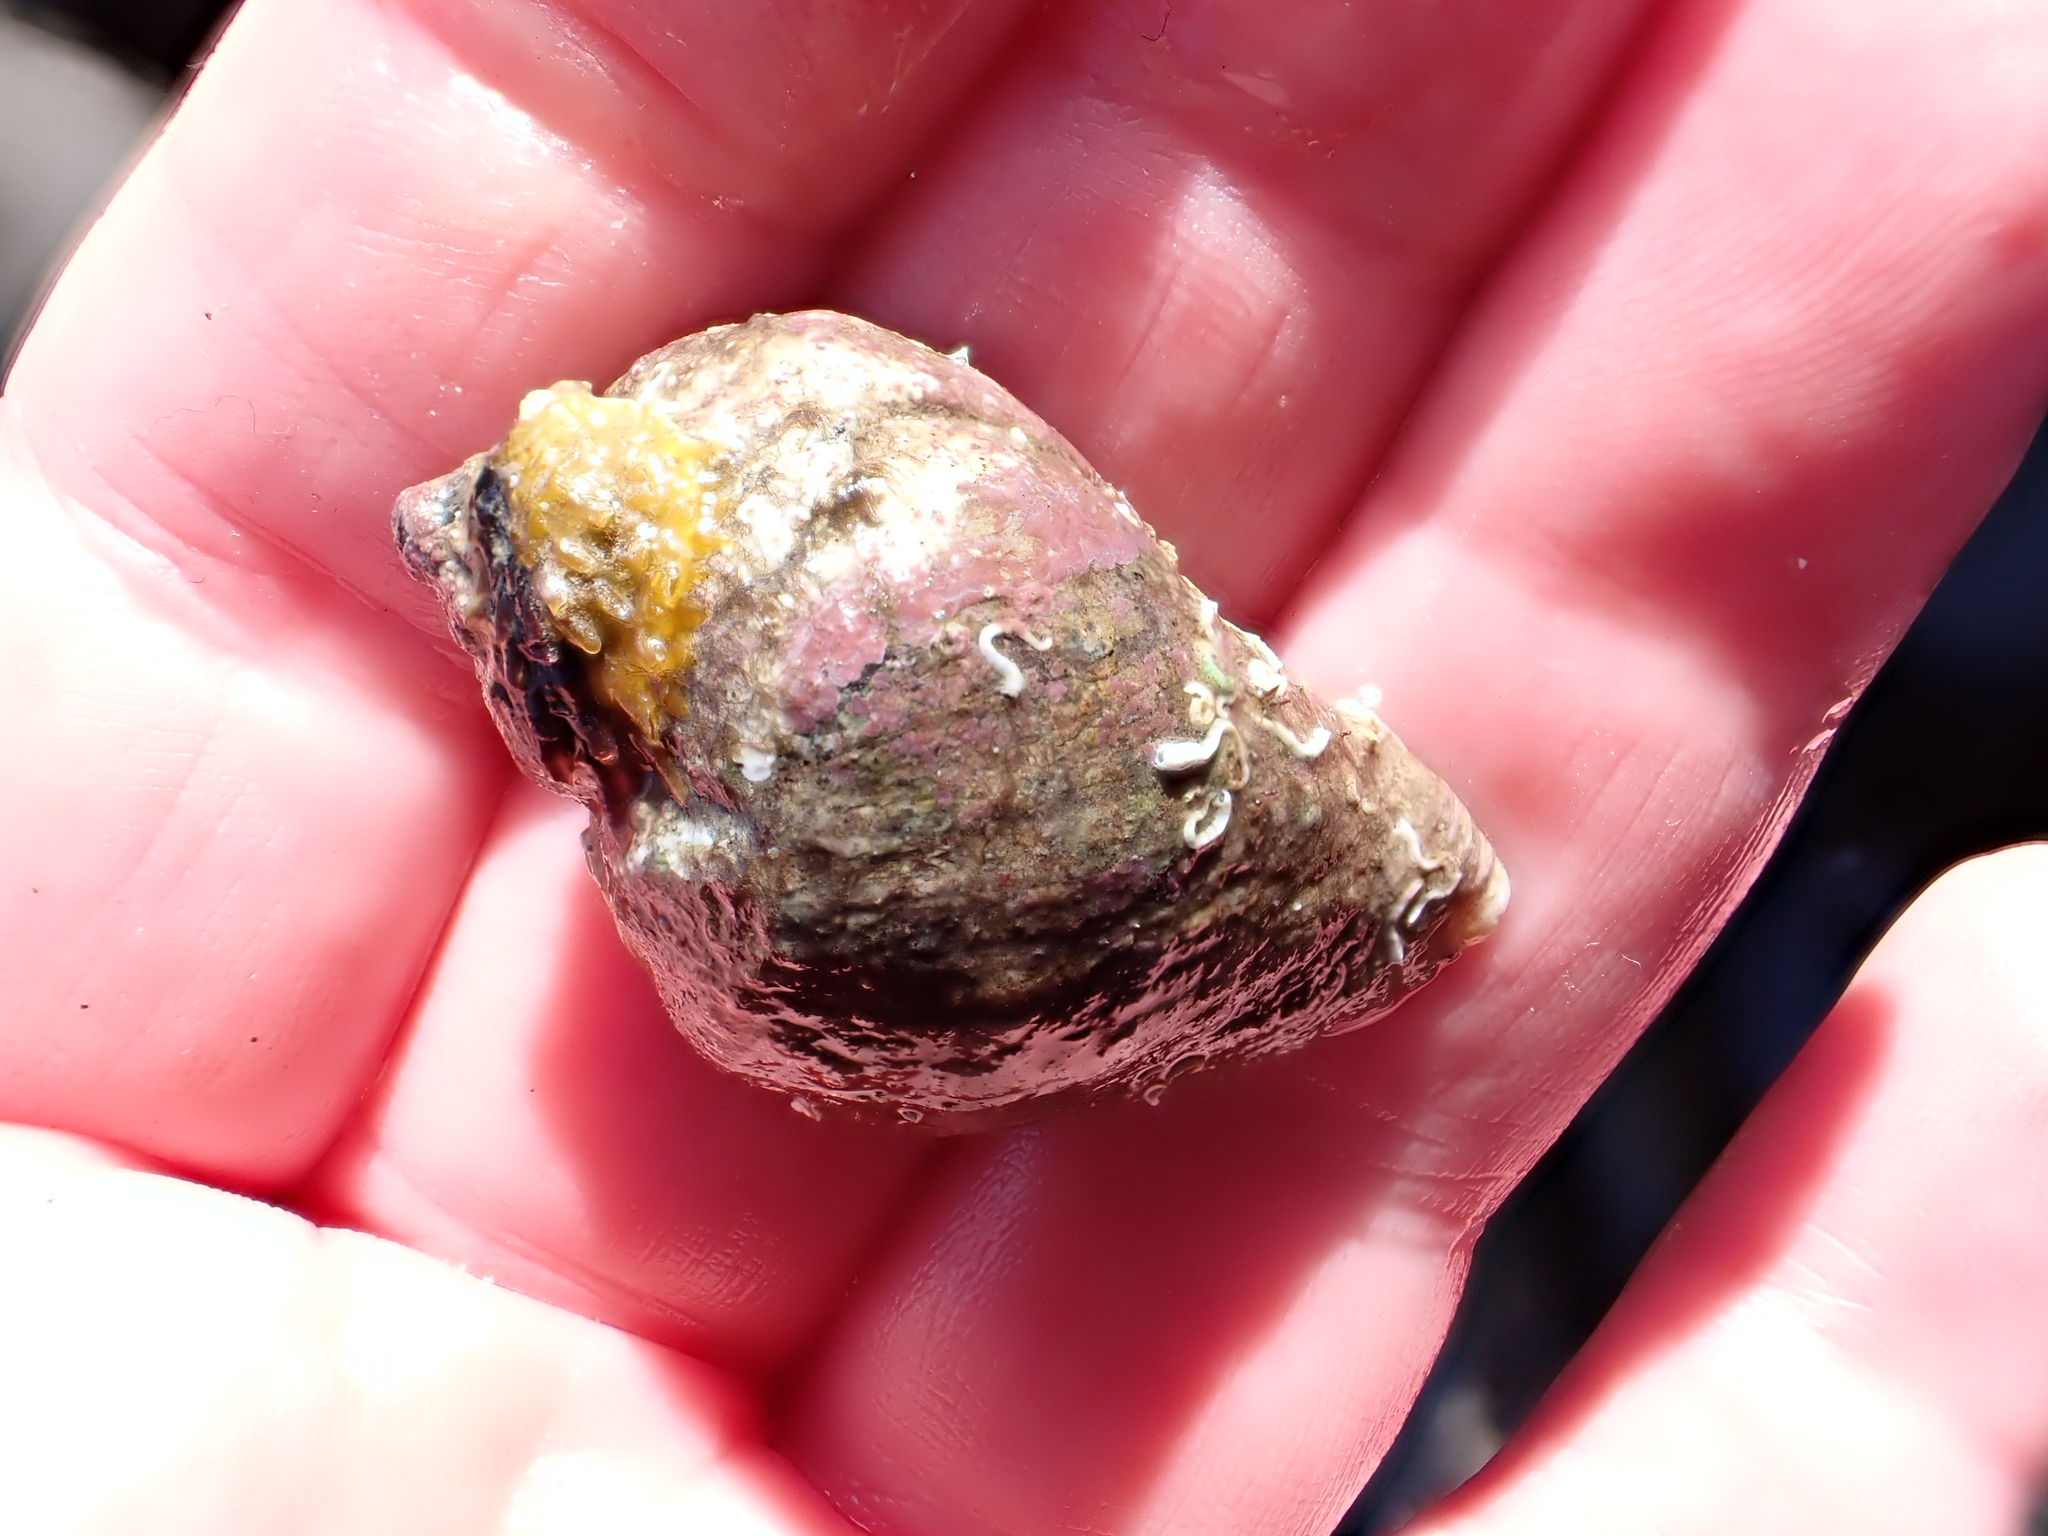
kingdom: Animalia
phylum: Mollusca
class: Gastropoda
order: Neogastropoda
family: Muricidae
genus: Haustrum
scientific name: Haustrum haustorium
